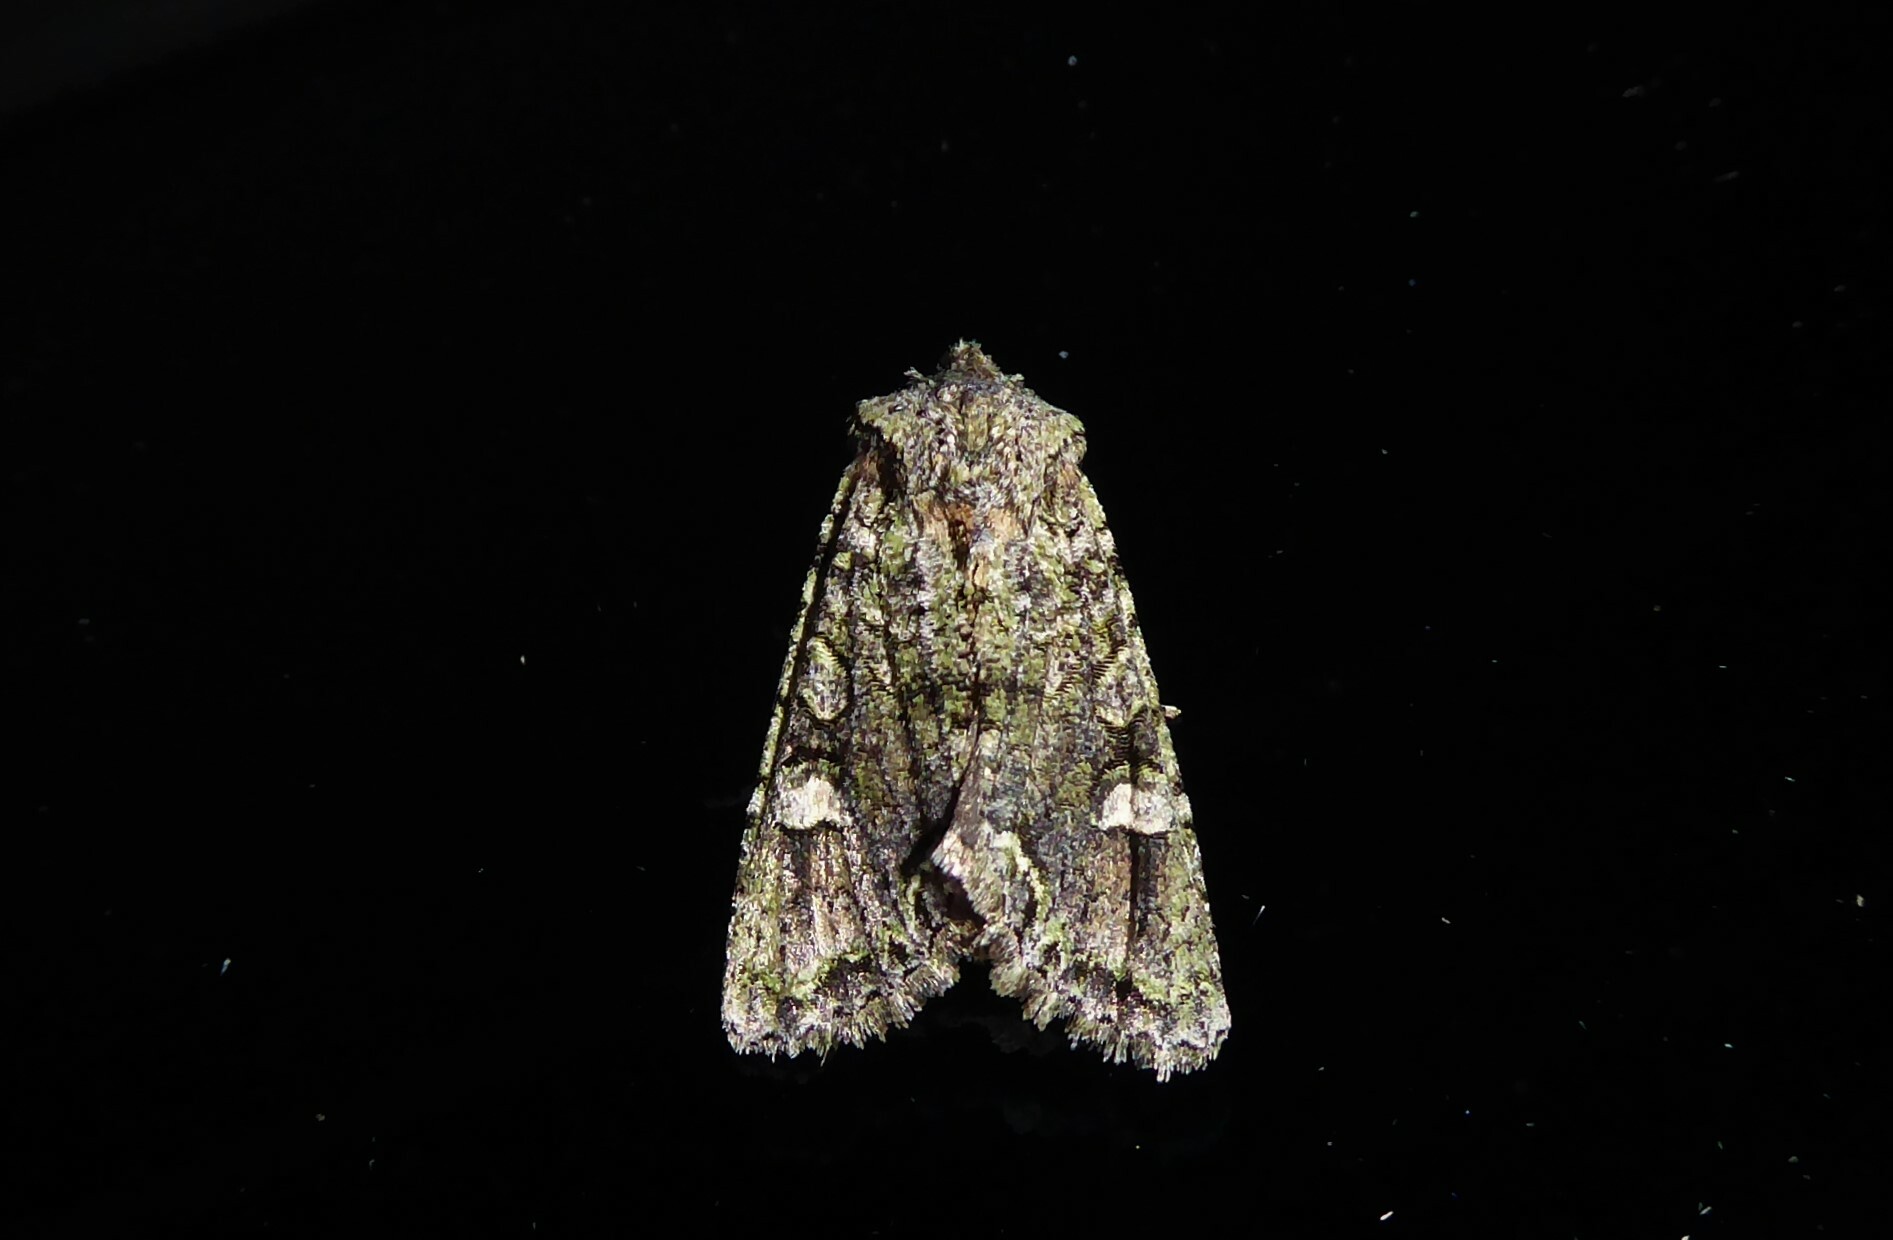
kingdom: Animalia
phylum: Arthropoda
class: Insecta
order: Lepidoptera
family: Noctuidae
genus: Ichneutica
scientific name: Ichneutica
